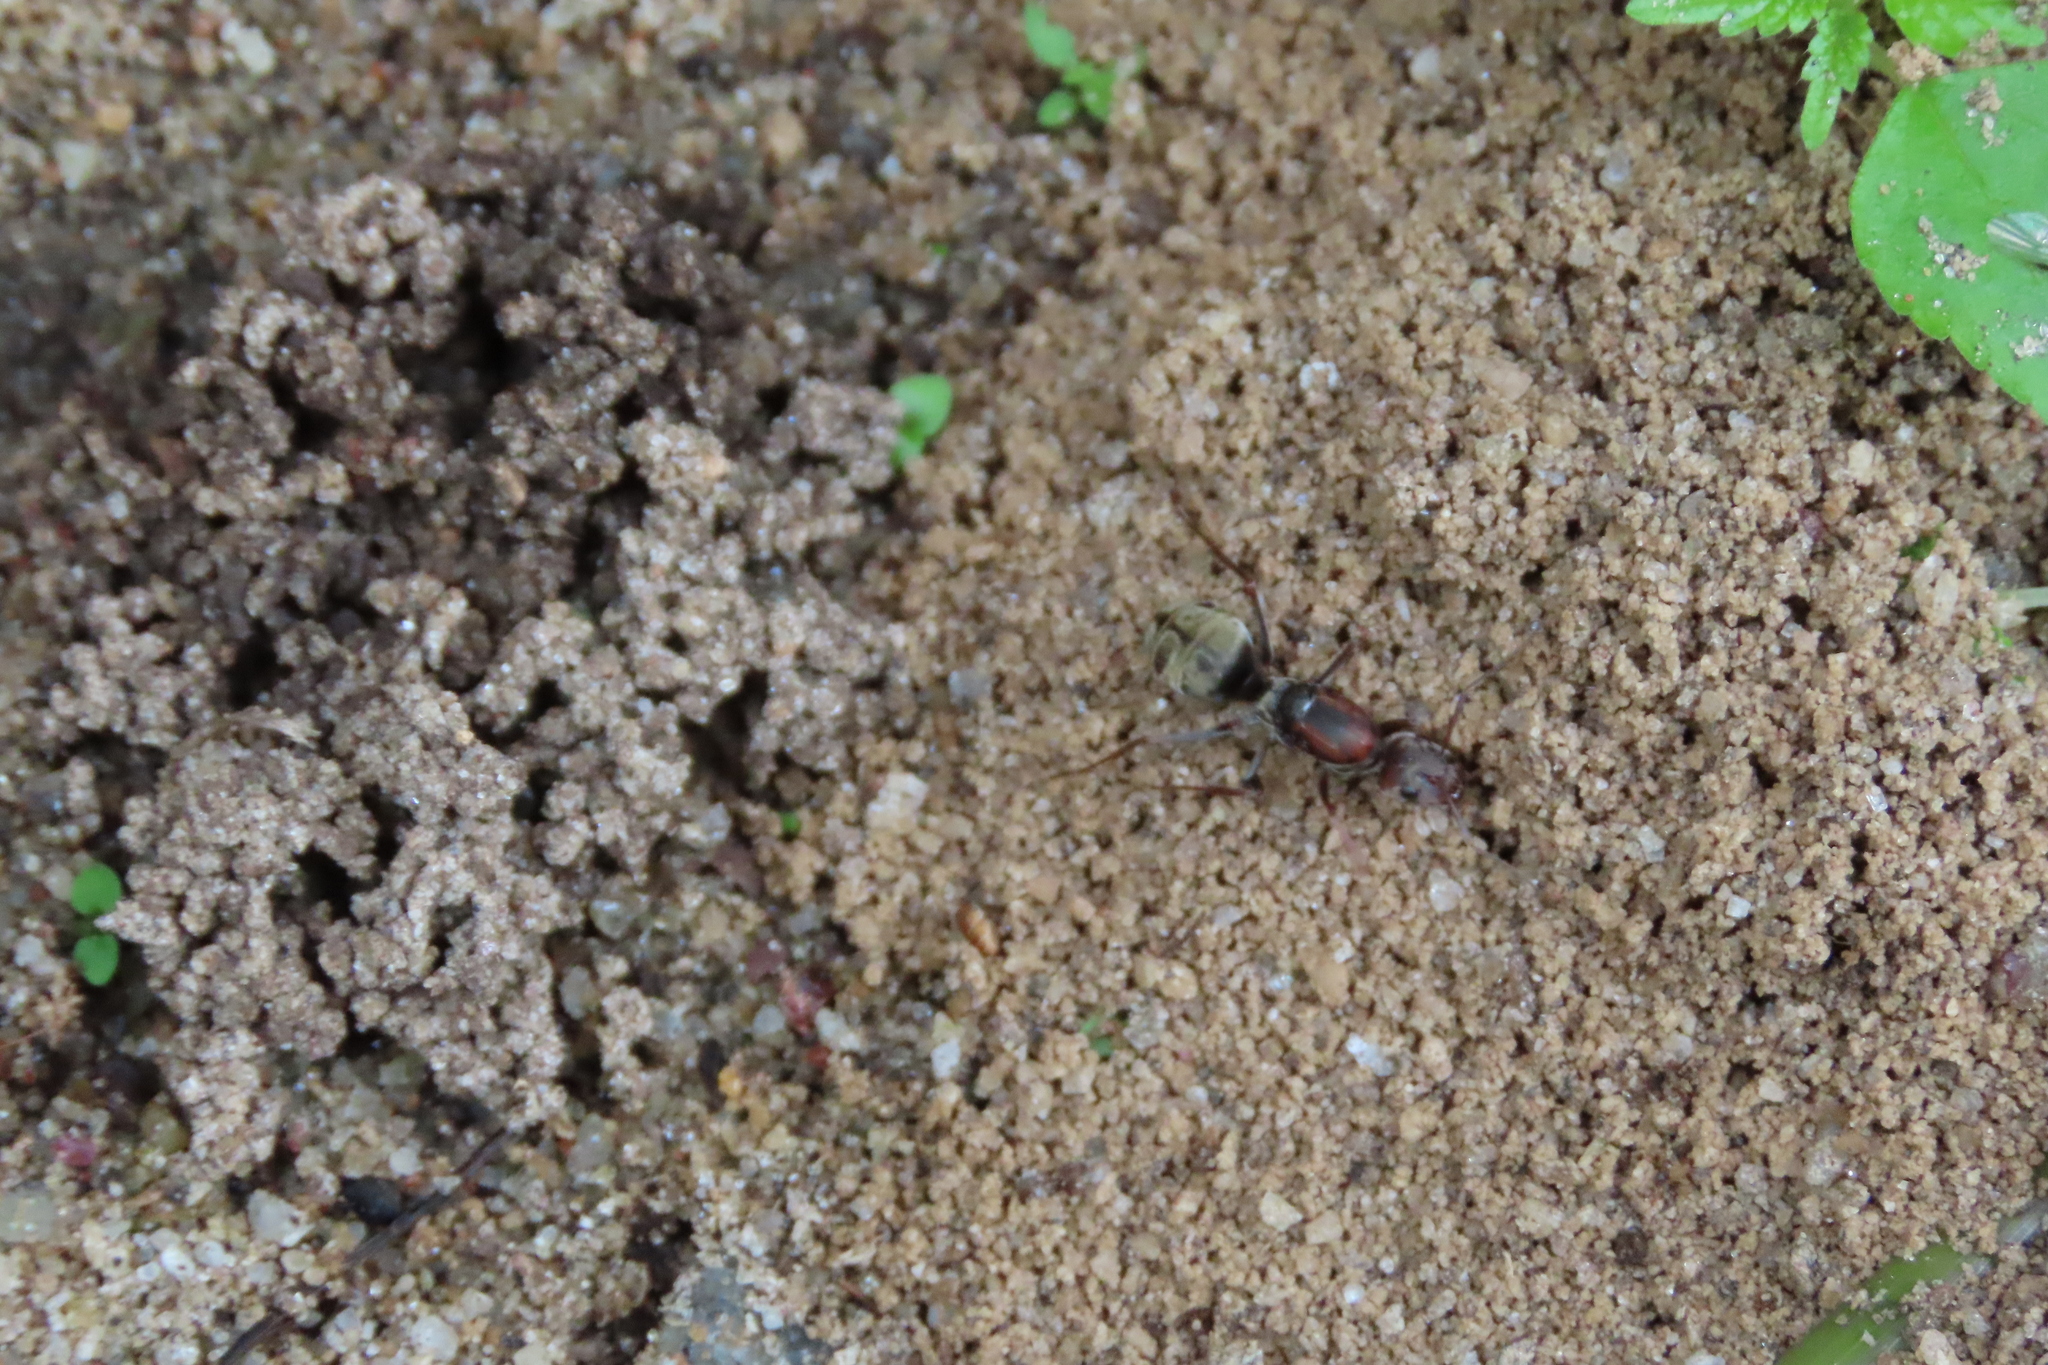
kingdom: Animalia
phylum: Arthropoda
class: Insecta
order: Hymenoptera
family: Formicidae
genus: Camponotus
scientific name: Camponotus rufoglaucus
